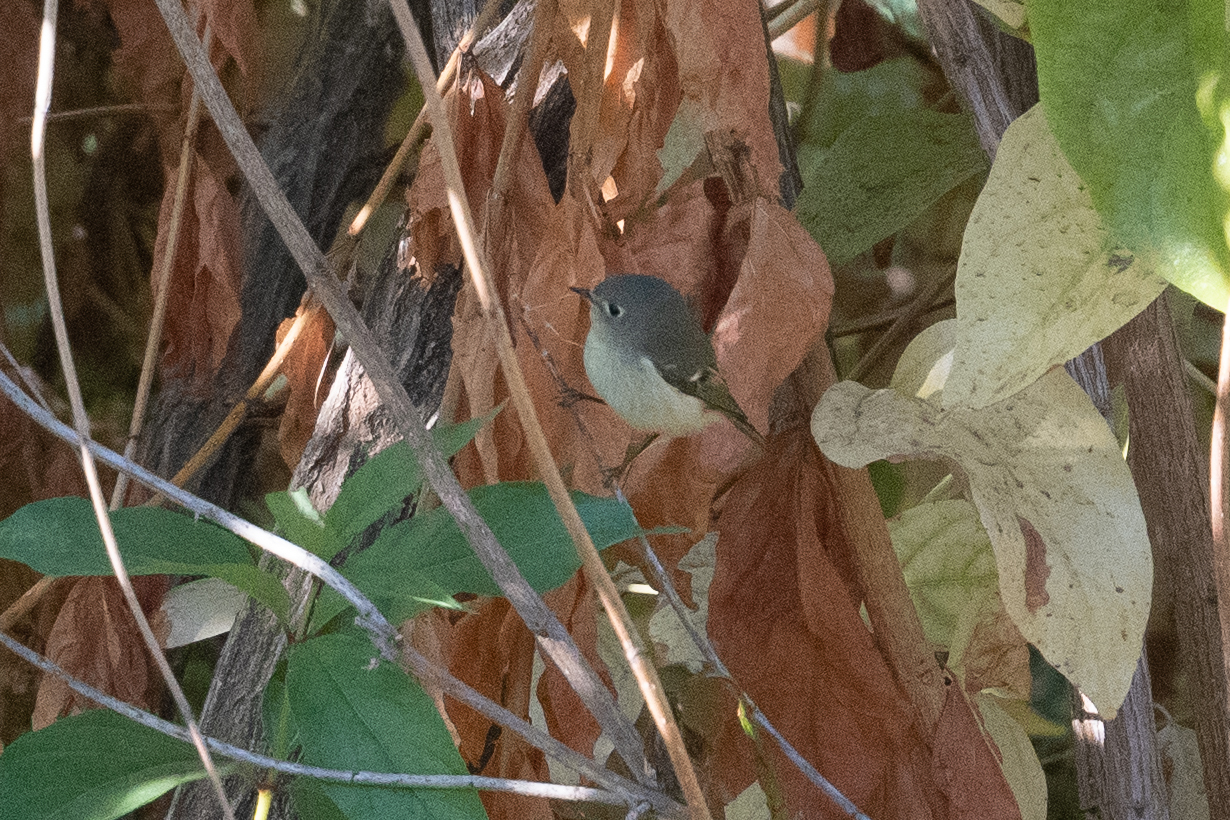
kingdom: Animalia
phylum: Chordata
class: Aves
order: Passeriformes
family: Regulidae
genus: Regulus
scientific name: Regulus calendula
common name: Ruby-crowned kinglet
